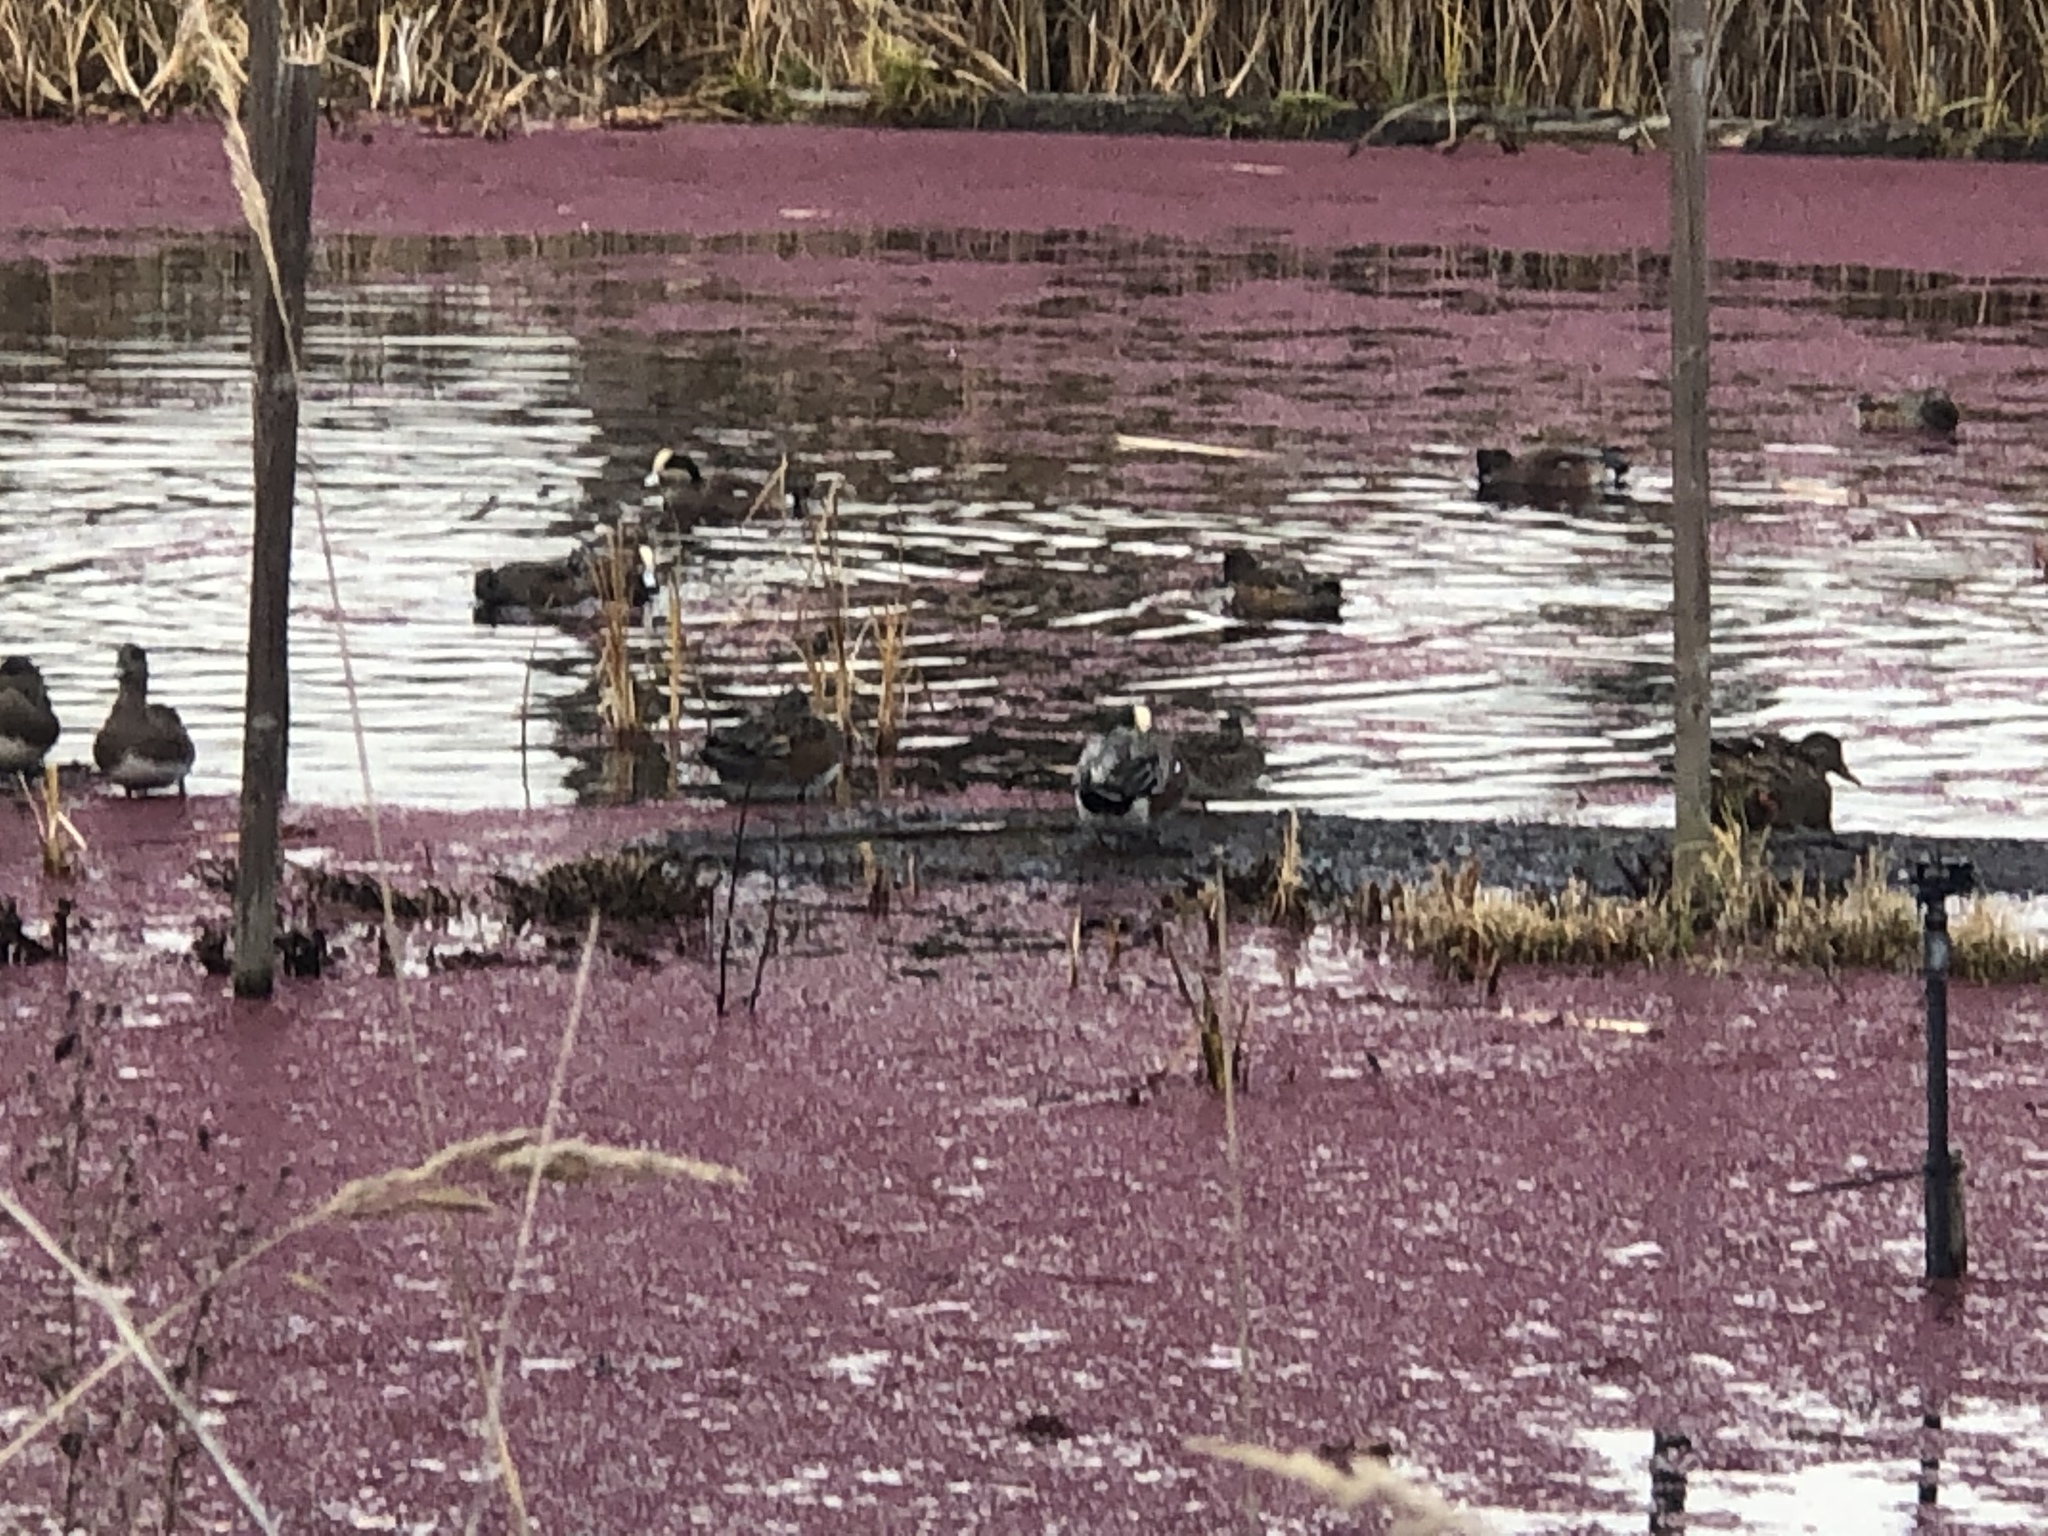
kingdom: Animalia
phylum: Chordata
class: Aves
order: Anseriformes
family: Anatidae
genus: Mareca
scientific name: Mareca americana
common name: American wigeon
